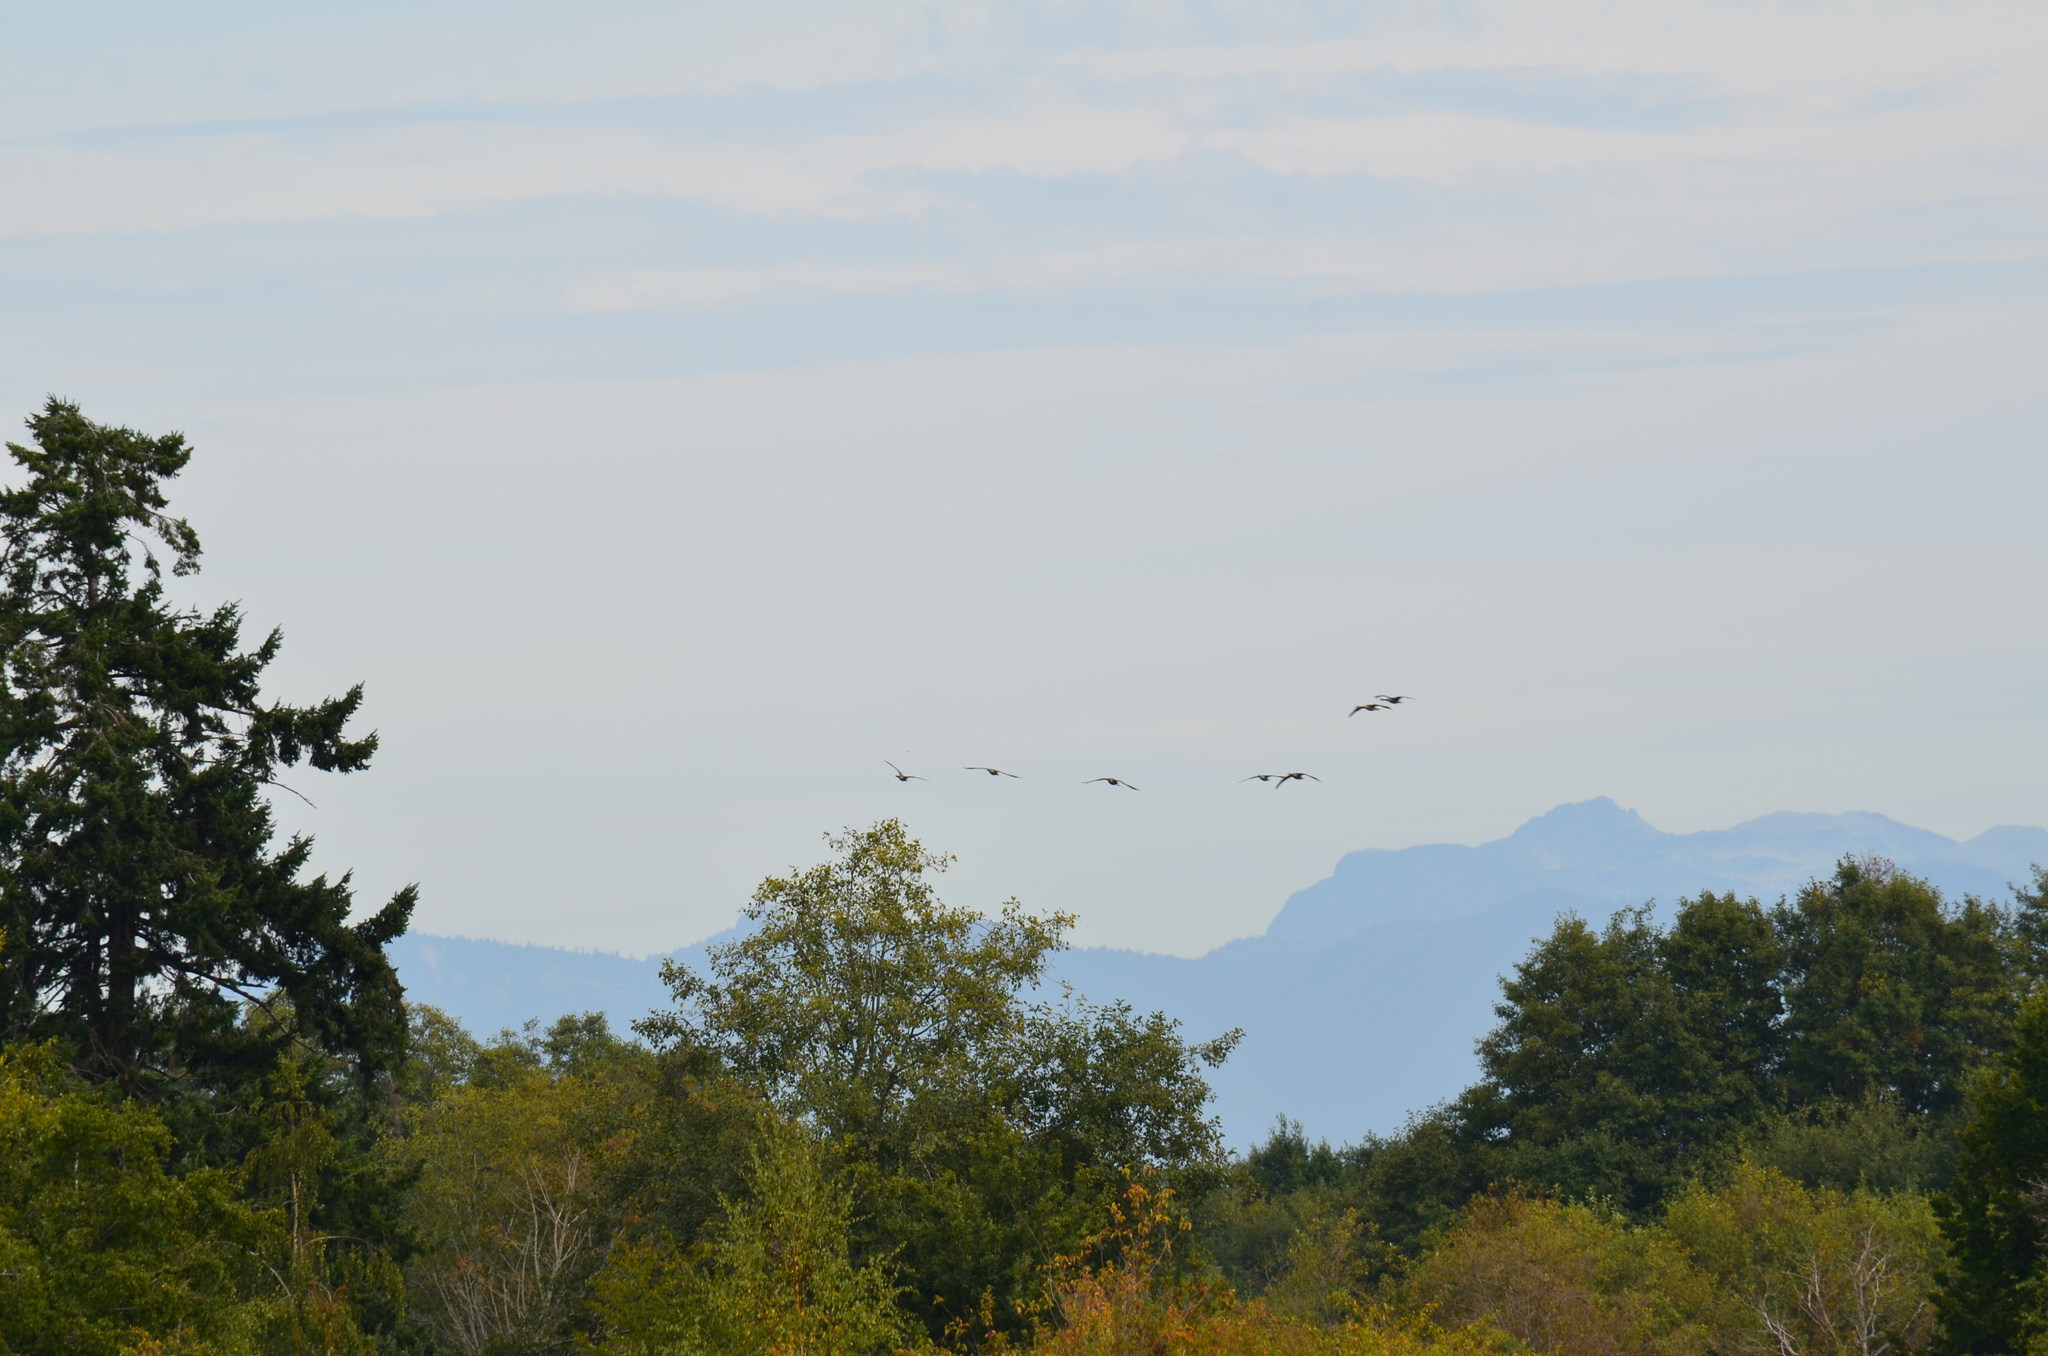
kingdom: Animalia
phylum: Chordata
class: Aves
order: Anseriformes
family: Anatidae
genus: Branta
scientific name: Branta canadensis
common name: Canada goose
